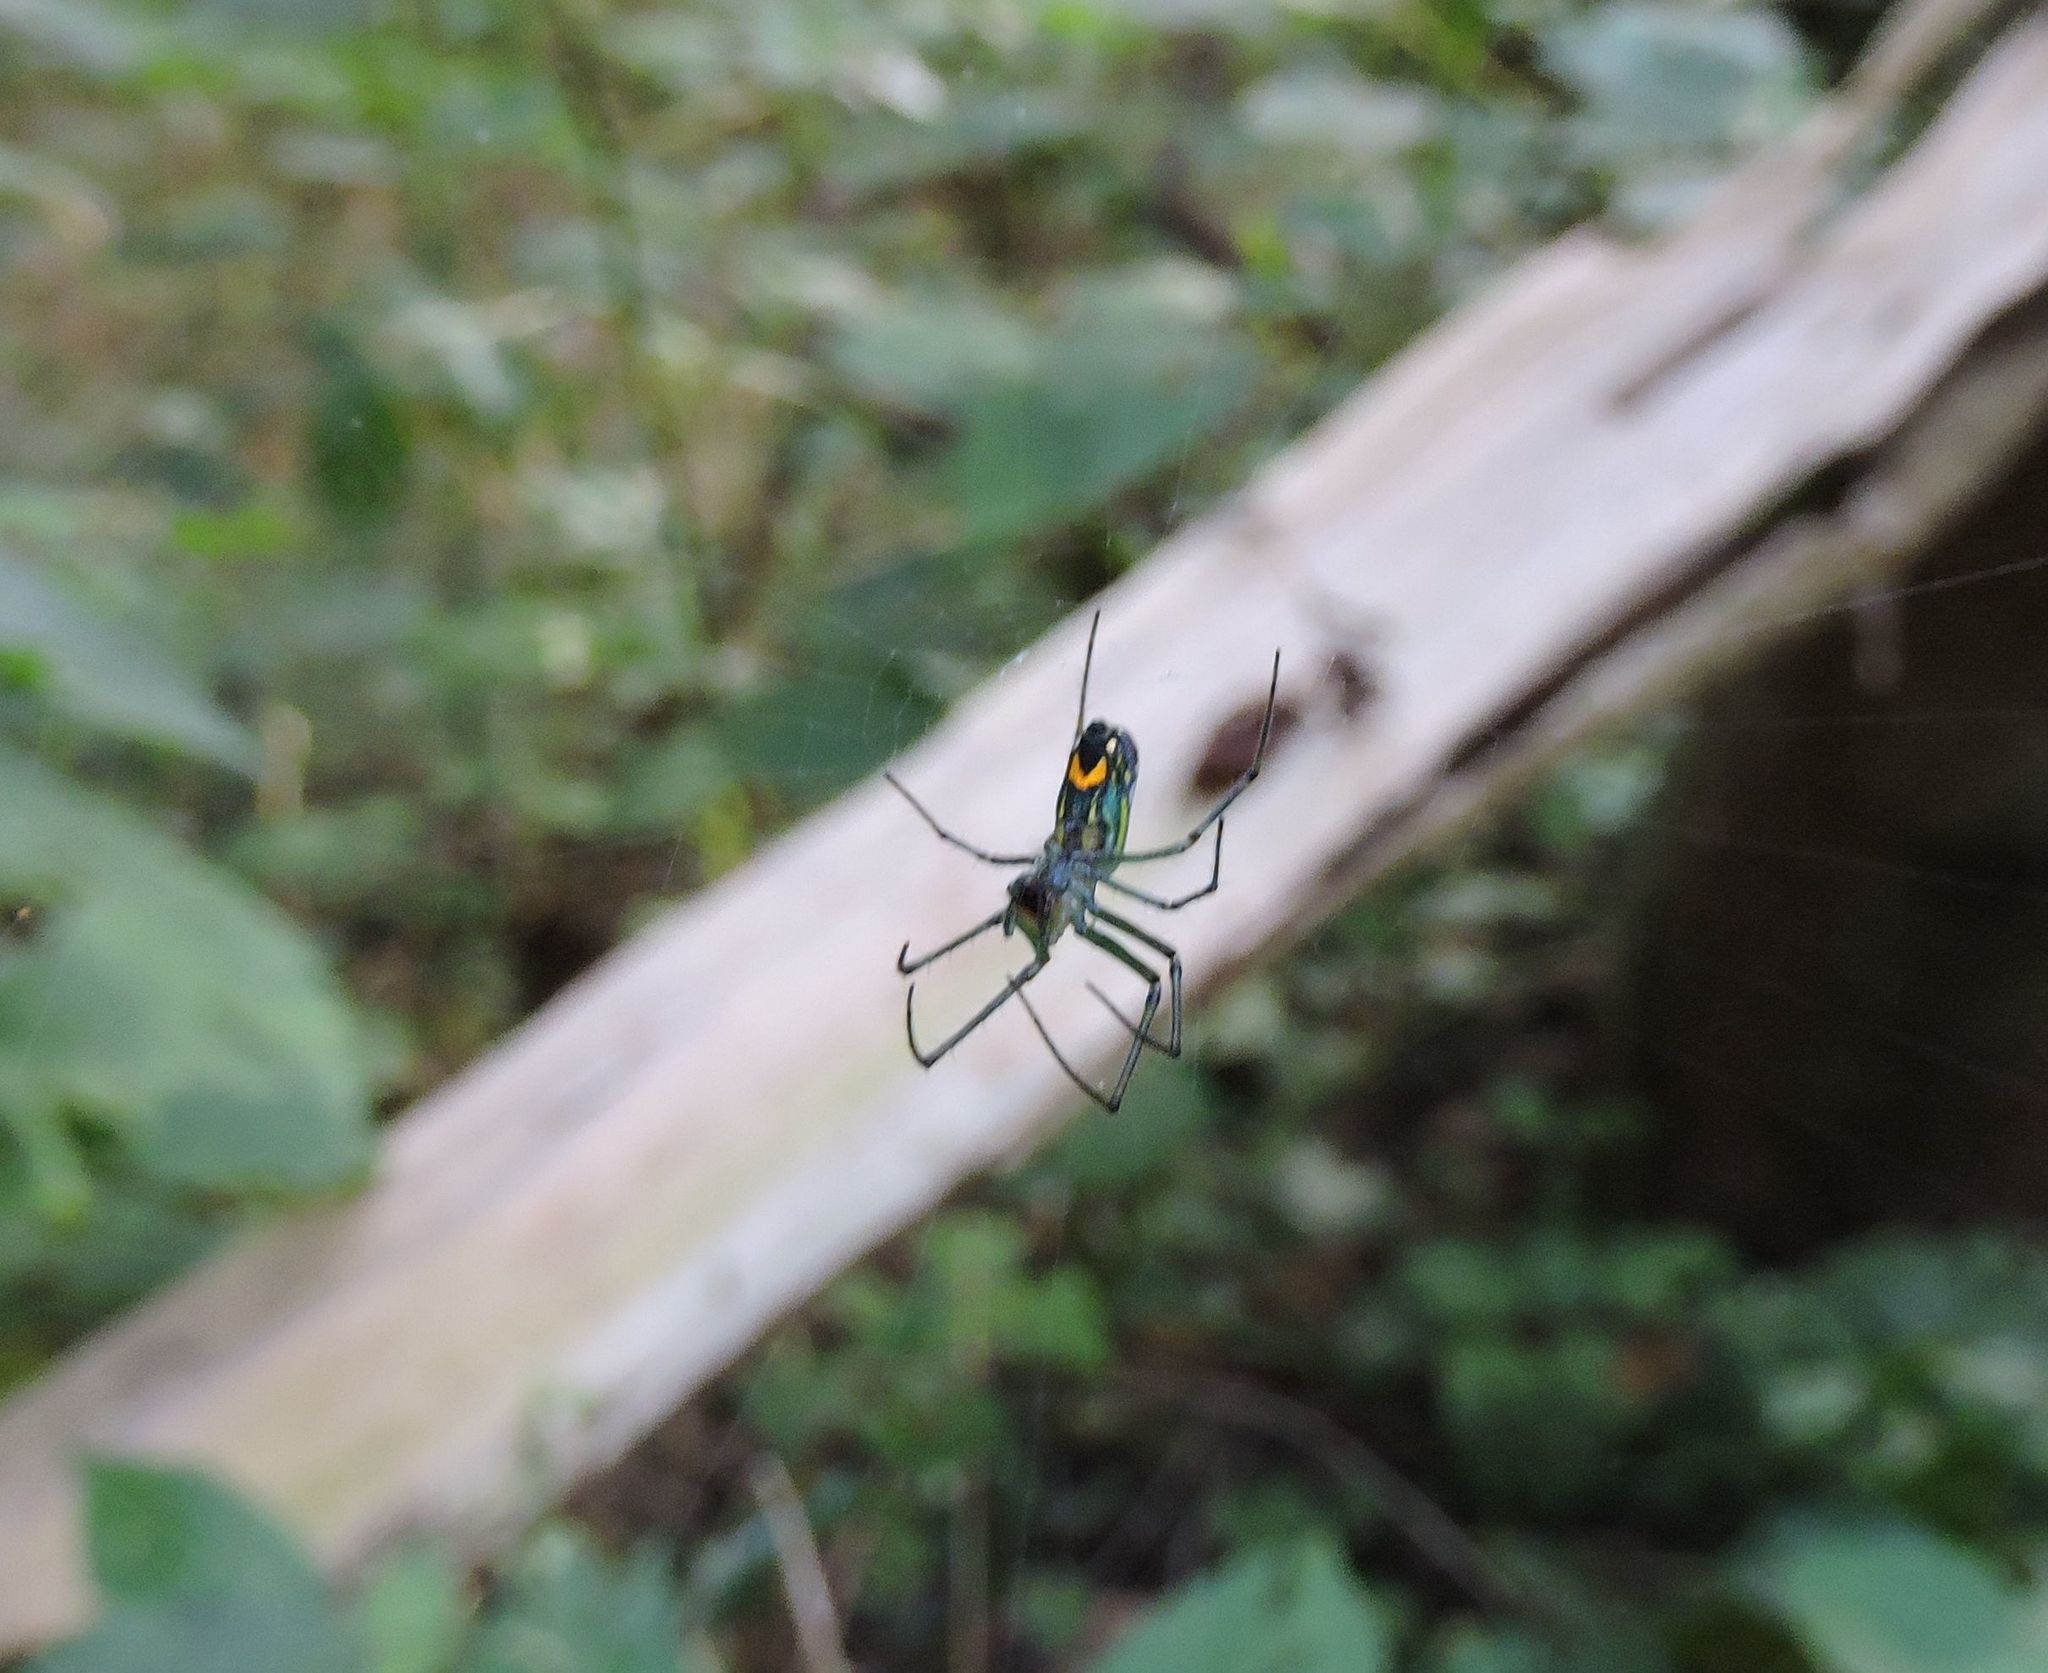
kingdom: Animalia
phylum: Arthropoda
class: Arachnida
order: Araneae
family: Tetragnathidae
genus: Leucauge
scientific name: Leucauge venusta
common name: Longjawed orb weavers
